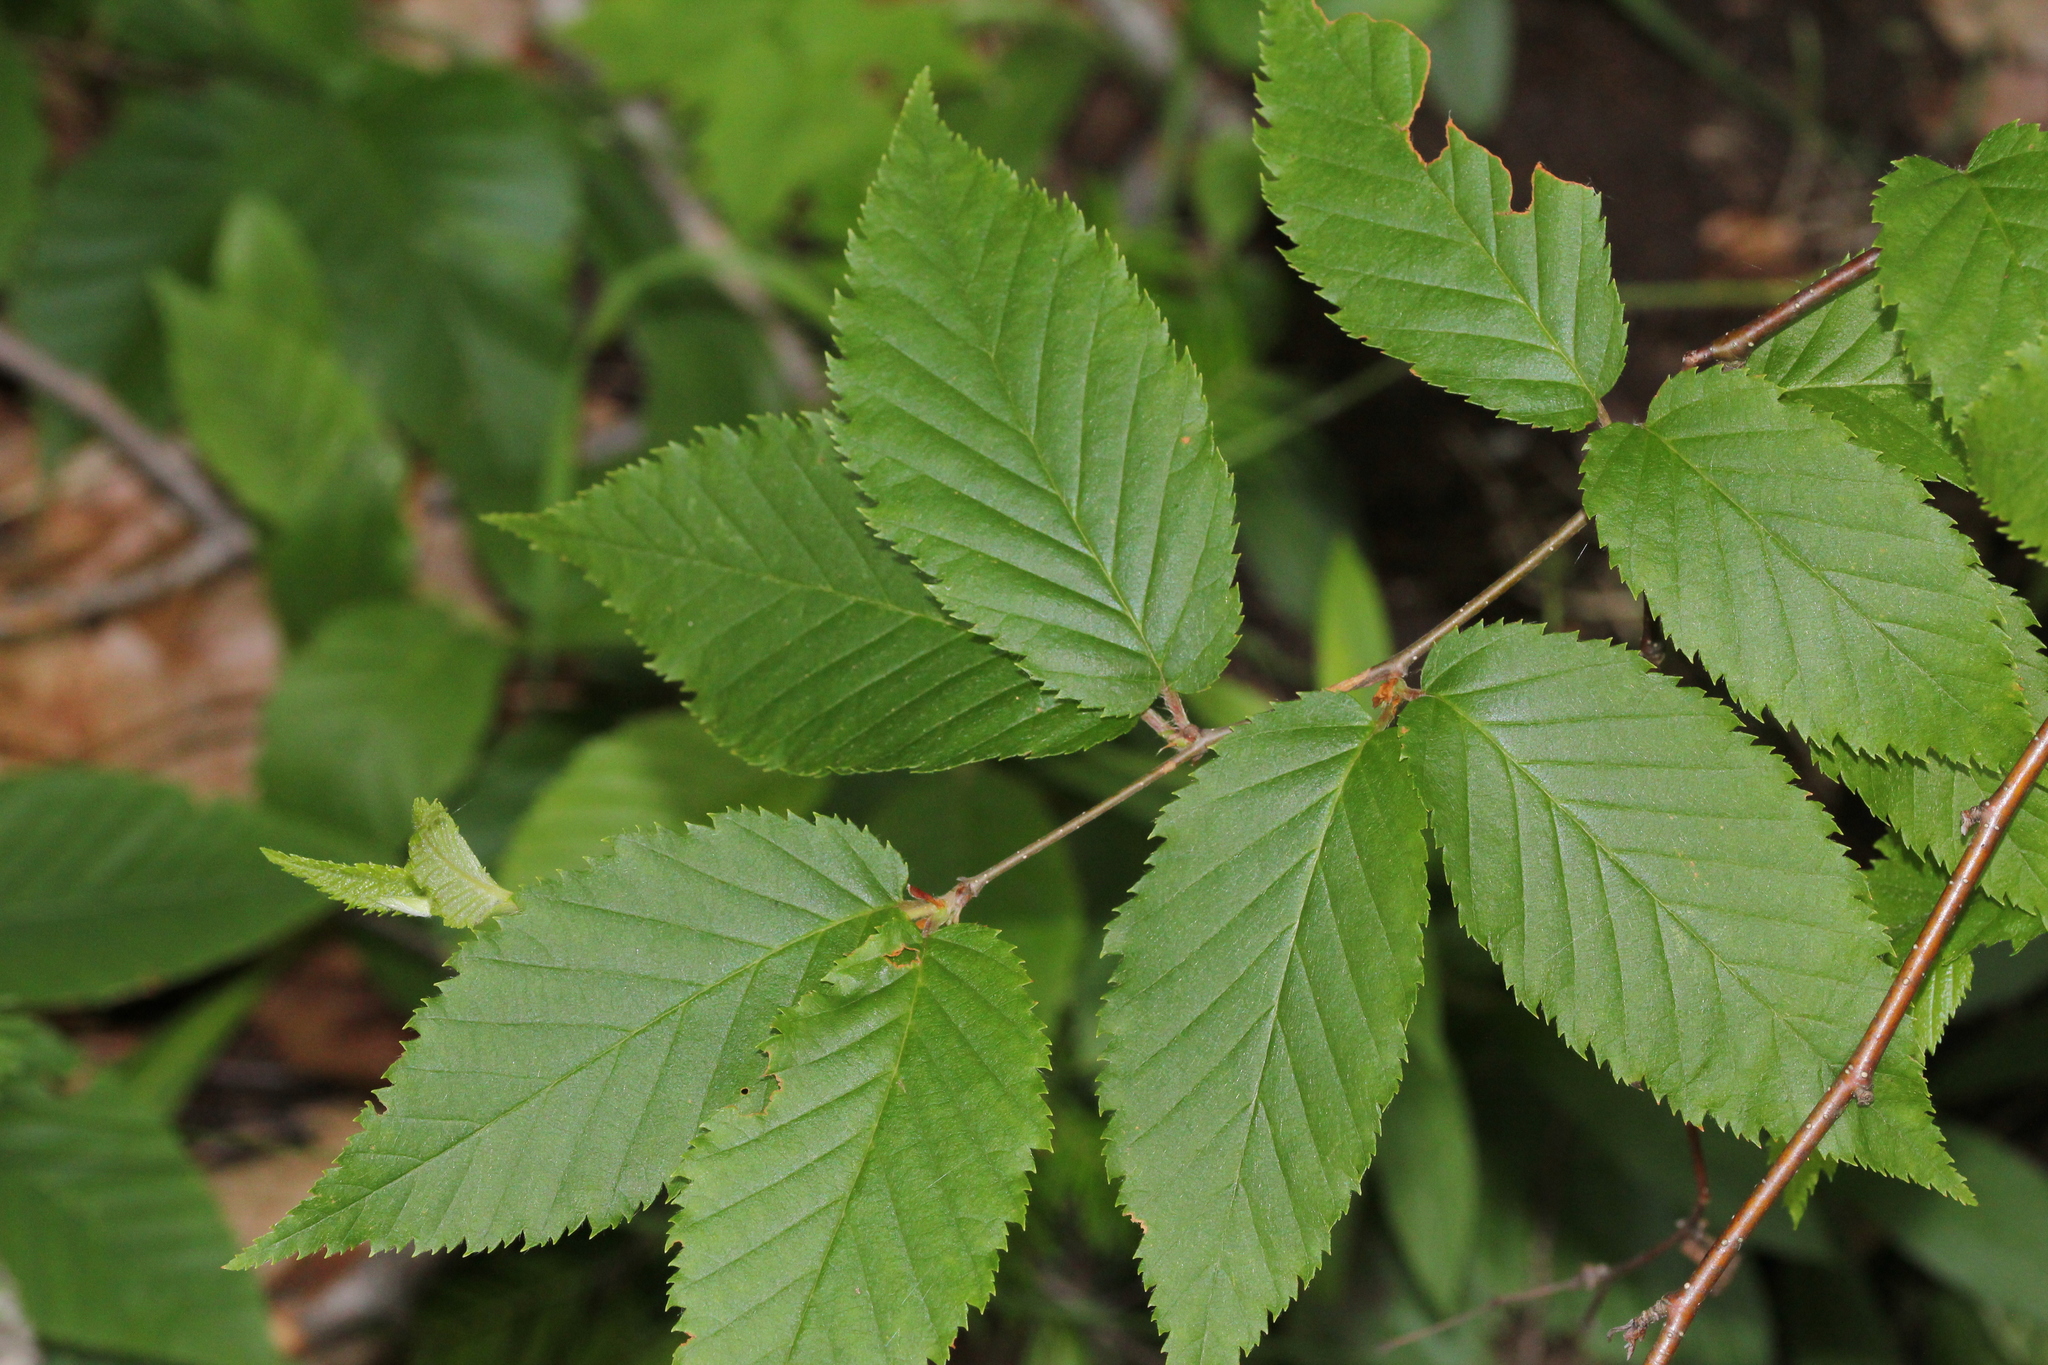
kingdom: Plantae
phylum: Tracheophyta
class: Magnoliopsida
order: Fagales
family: Betulaceae
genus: Betula
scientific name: Betula alleghaniensis
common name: Yellow birch
